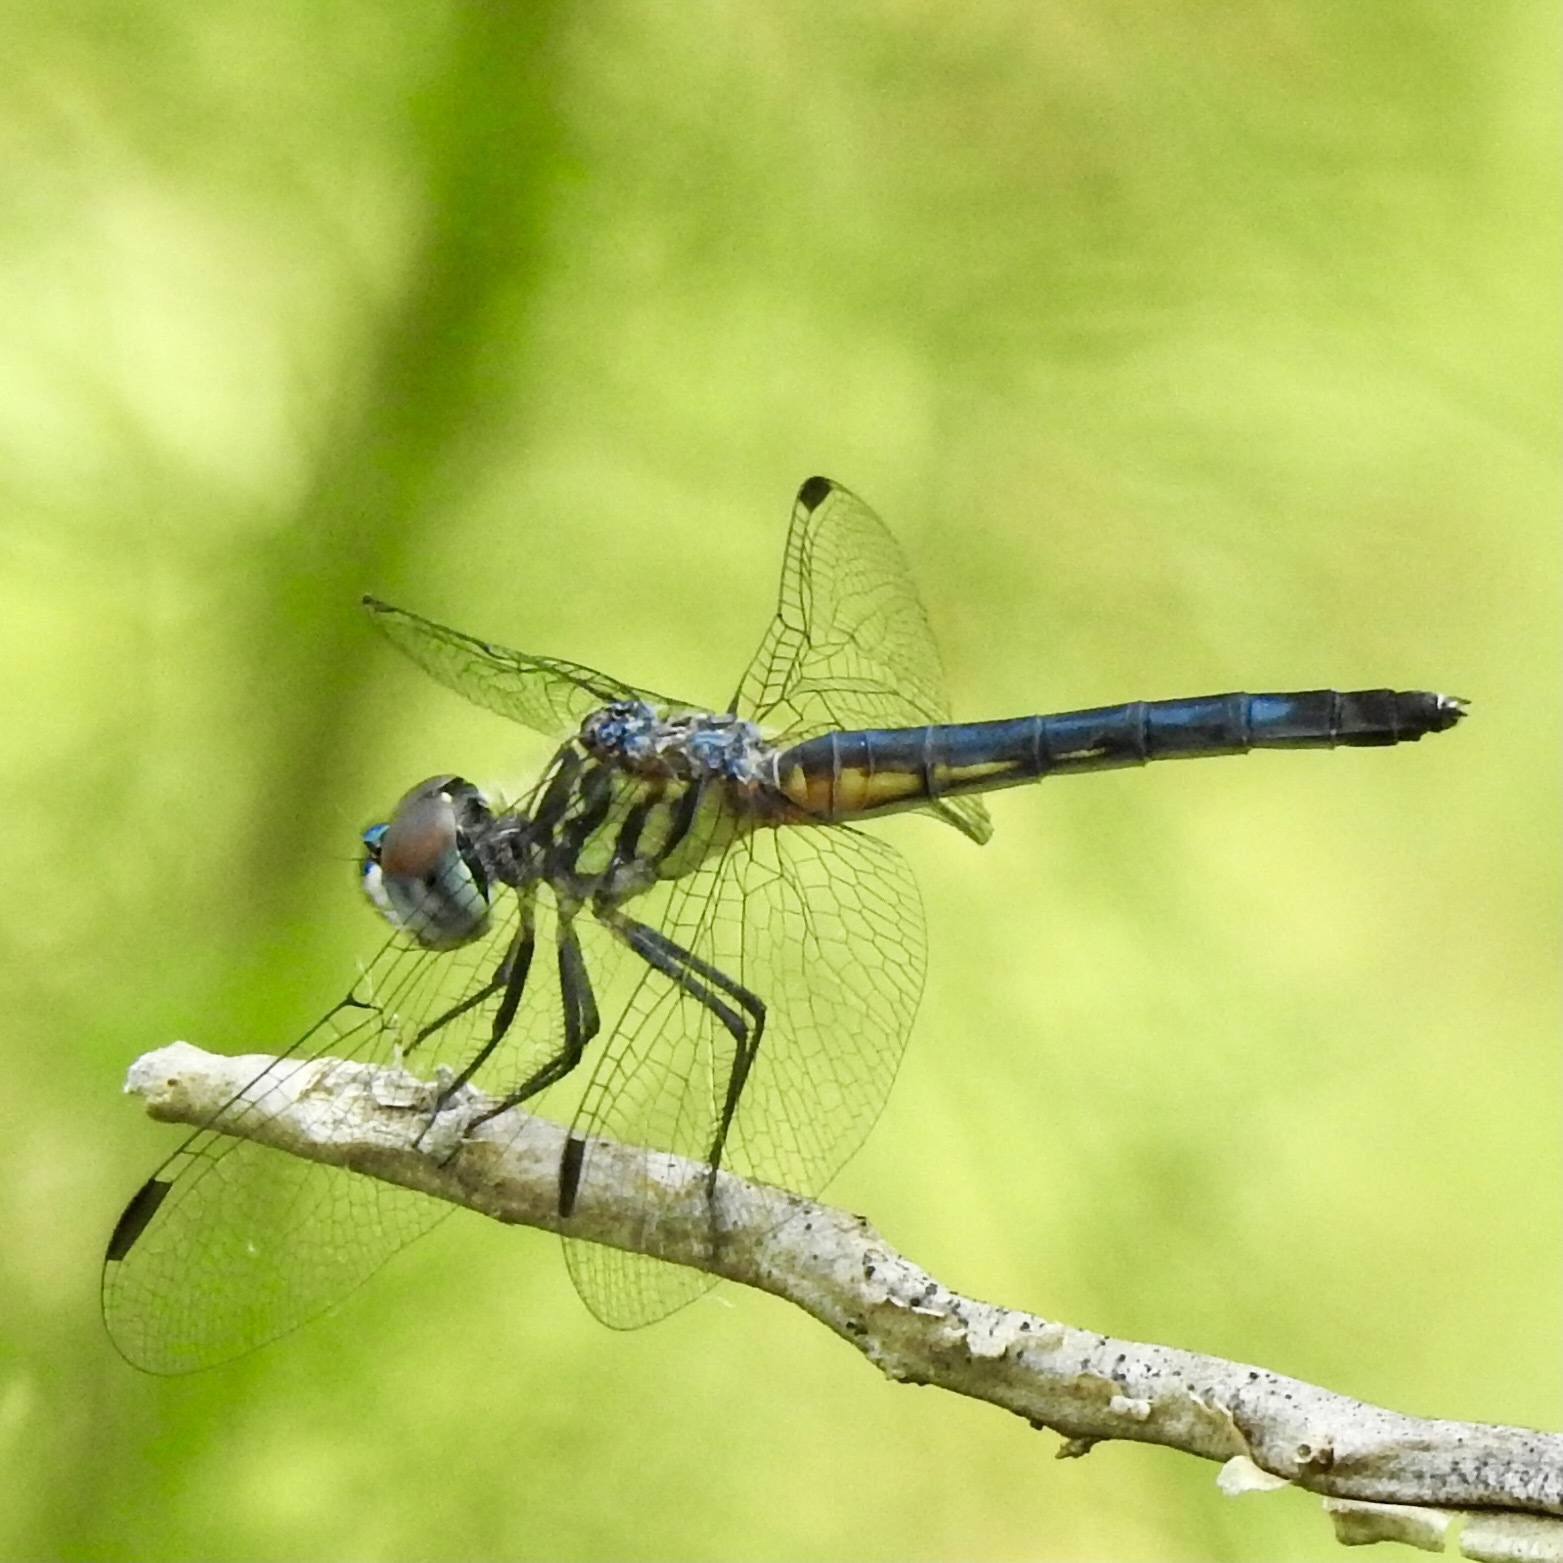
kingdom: Animalia
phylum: Arthropoda
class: Insecta
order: Odonata
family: Libellulidae
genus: Pachydiplax
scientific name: Pachydiplax longipennis
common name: Blue dasher
